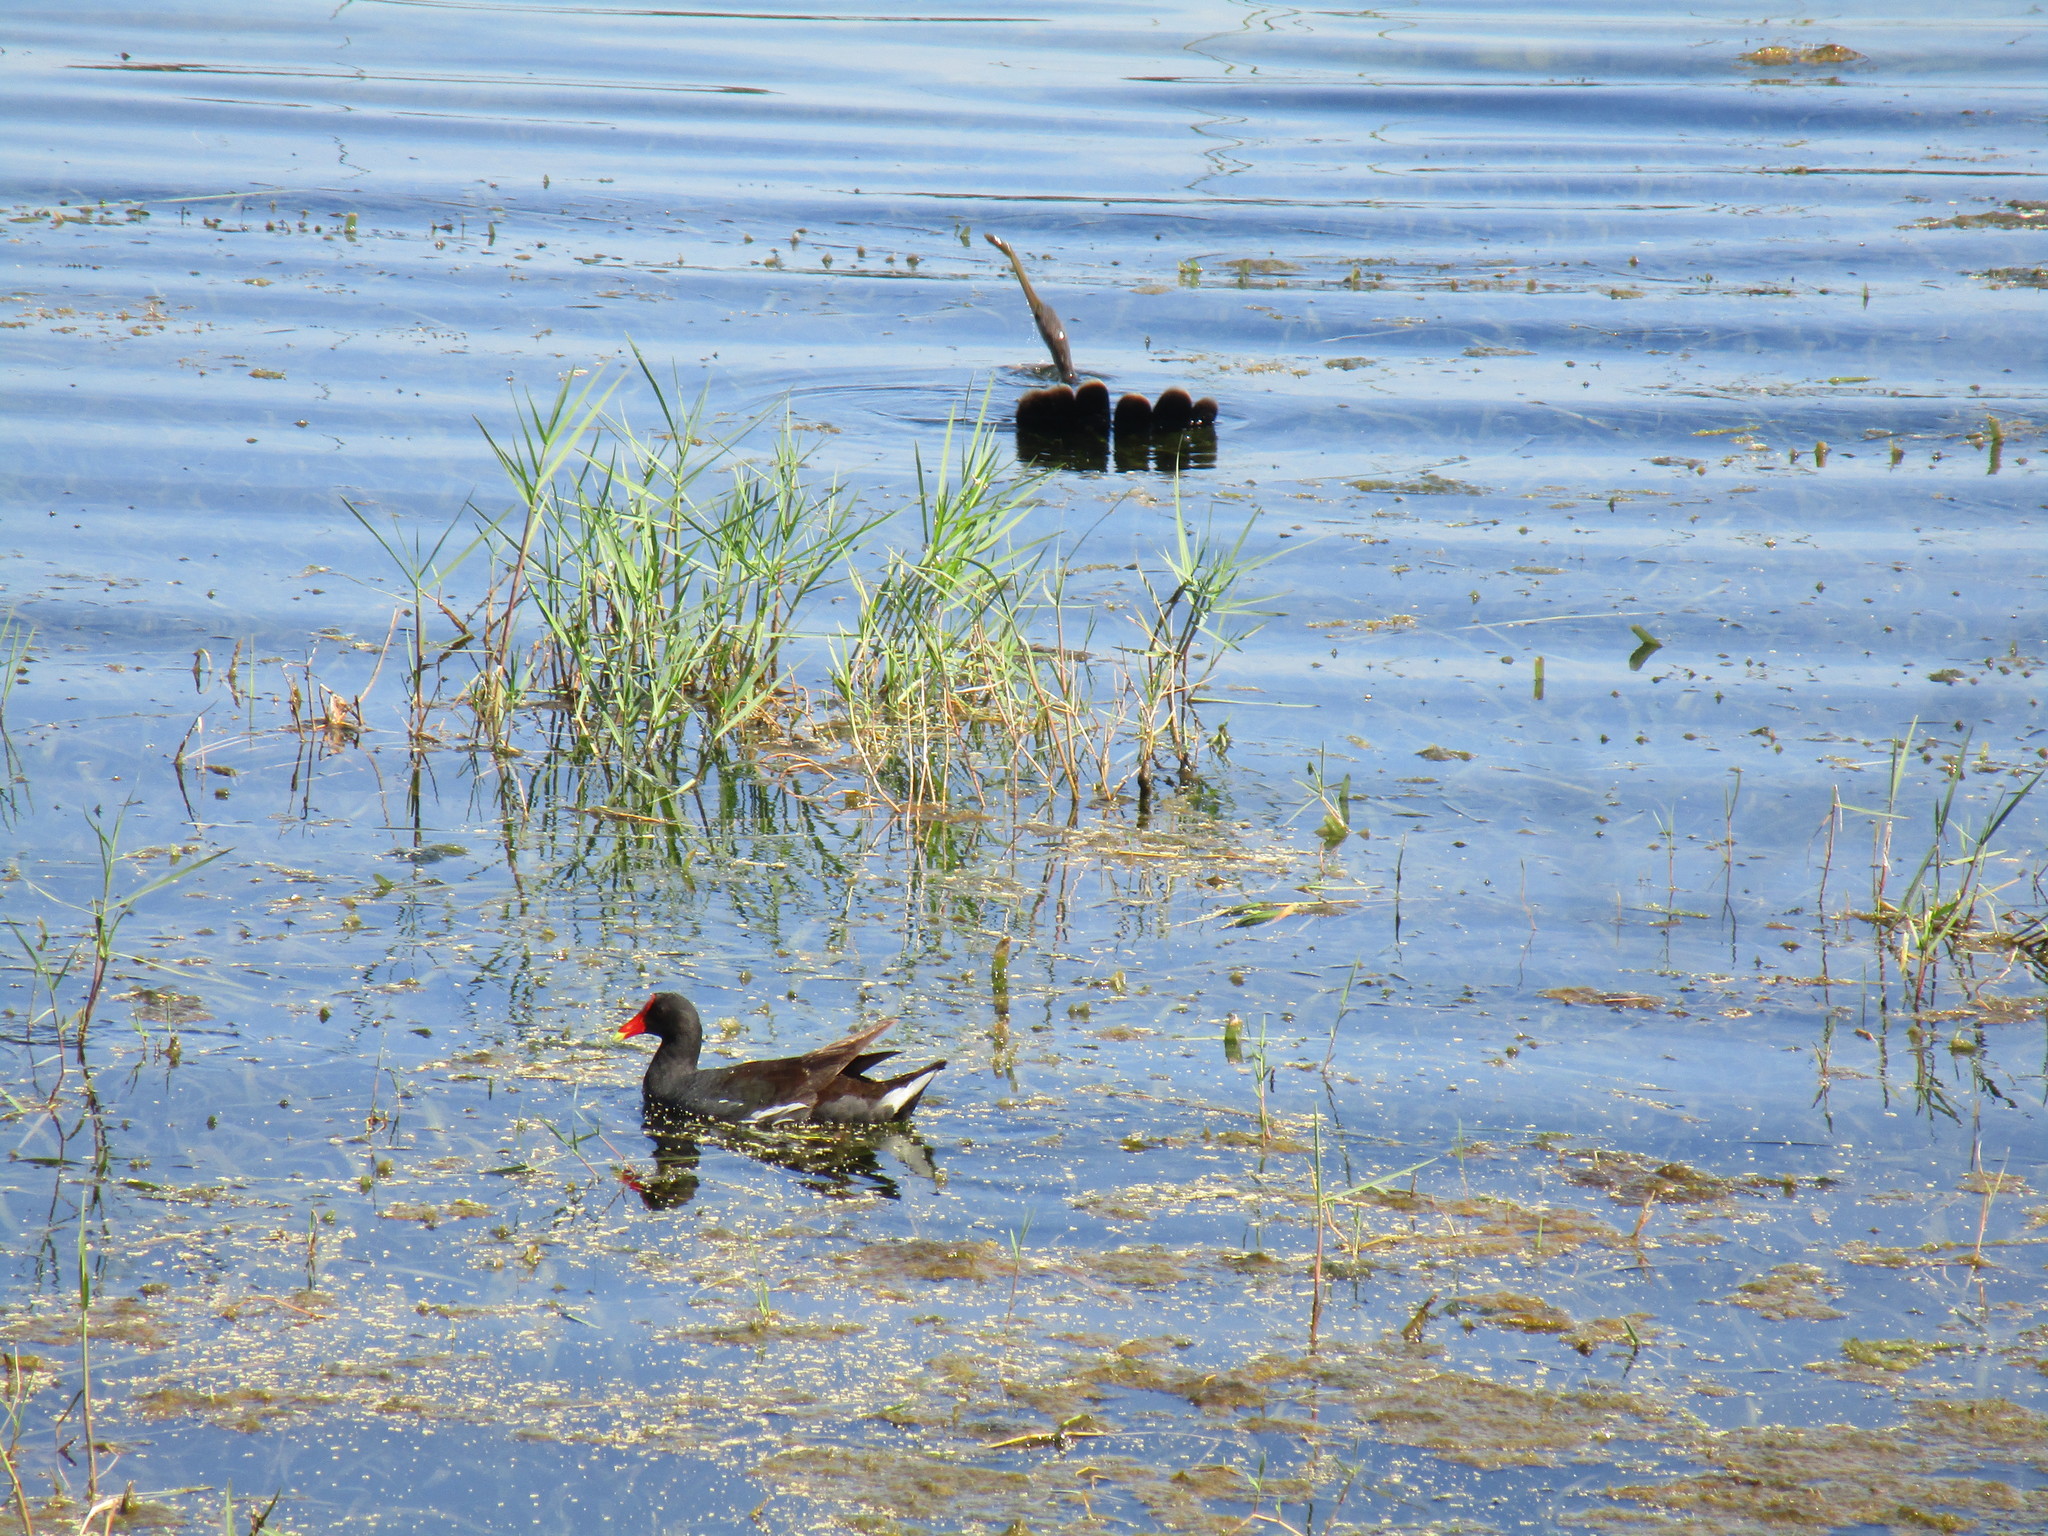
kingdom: Animalia
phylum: Chordata
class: Aves
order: Gruiformes
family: Rallidae
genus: Gallinula
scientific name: Gallinula chloropus
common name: Common moorhen
